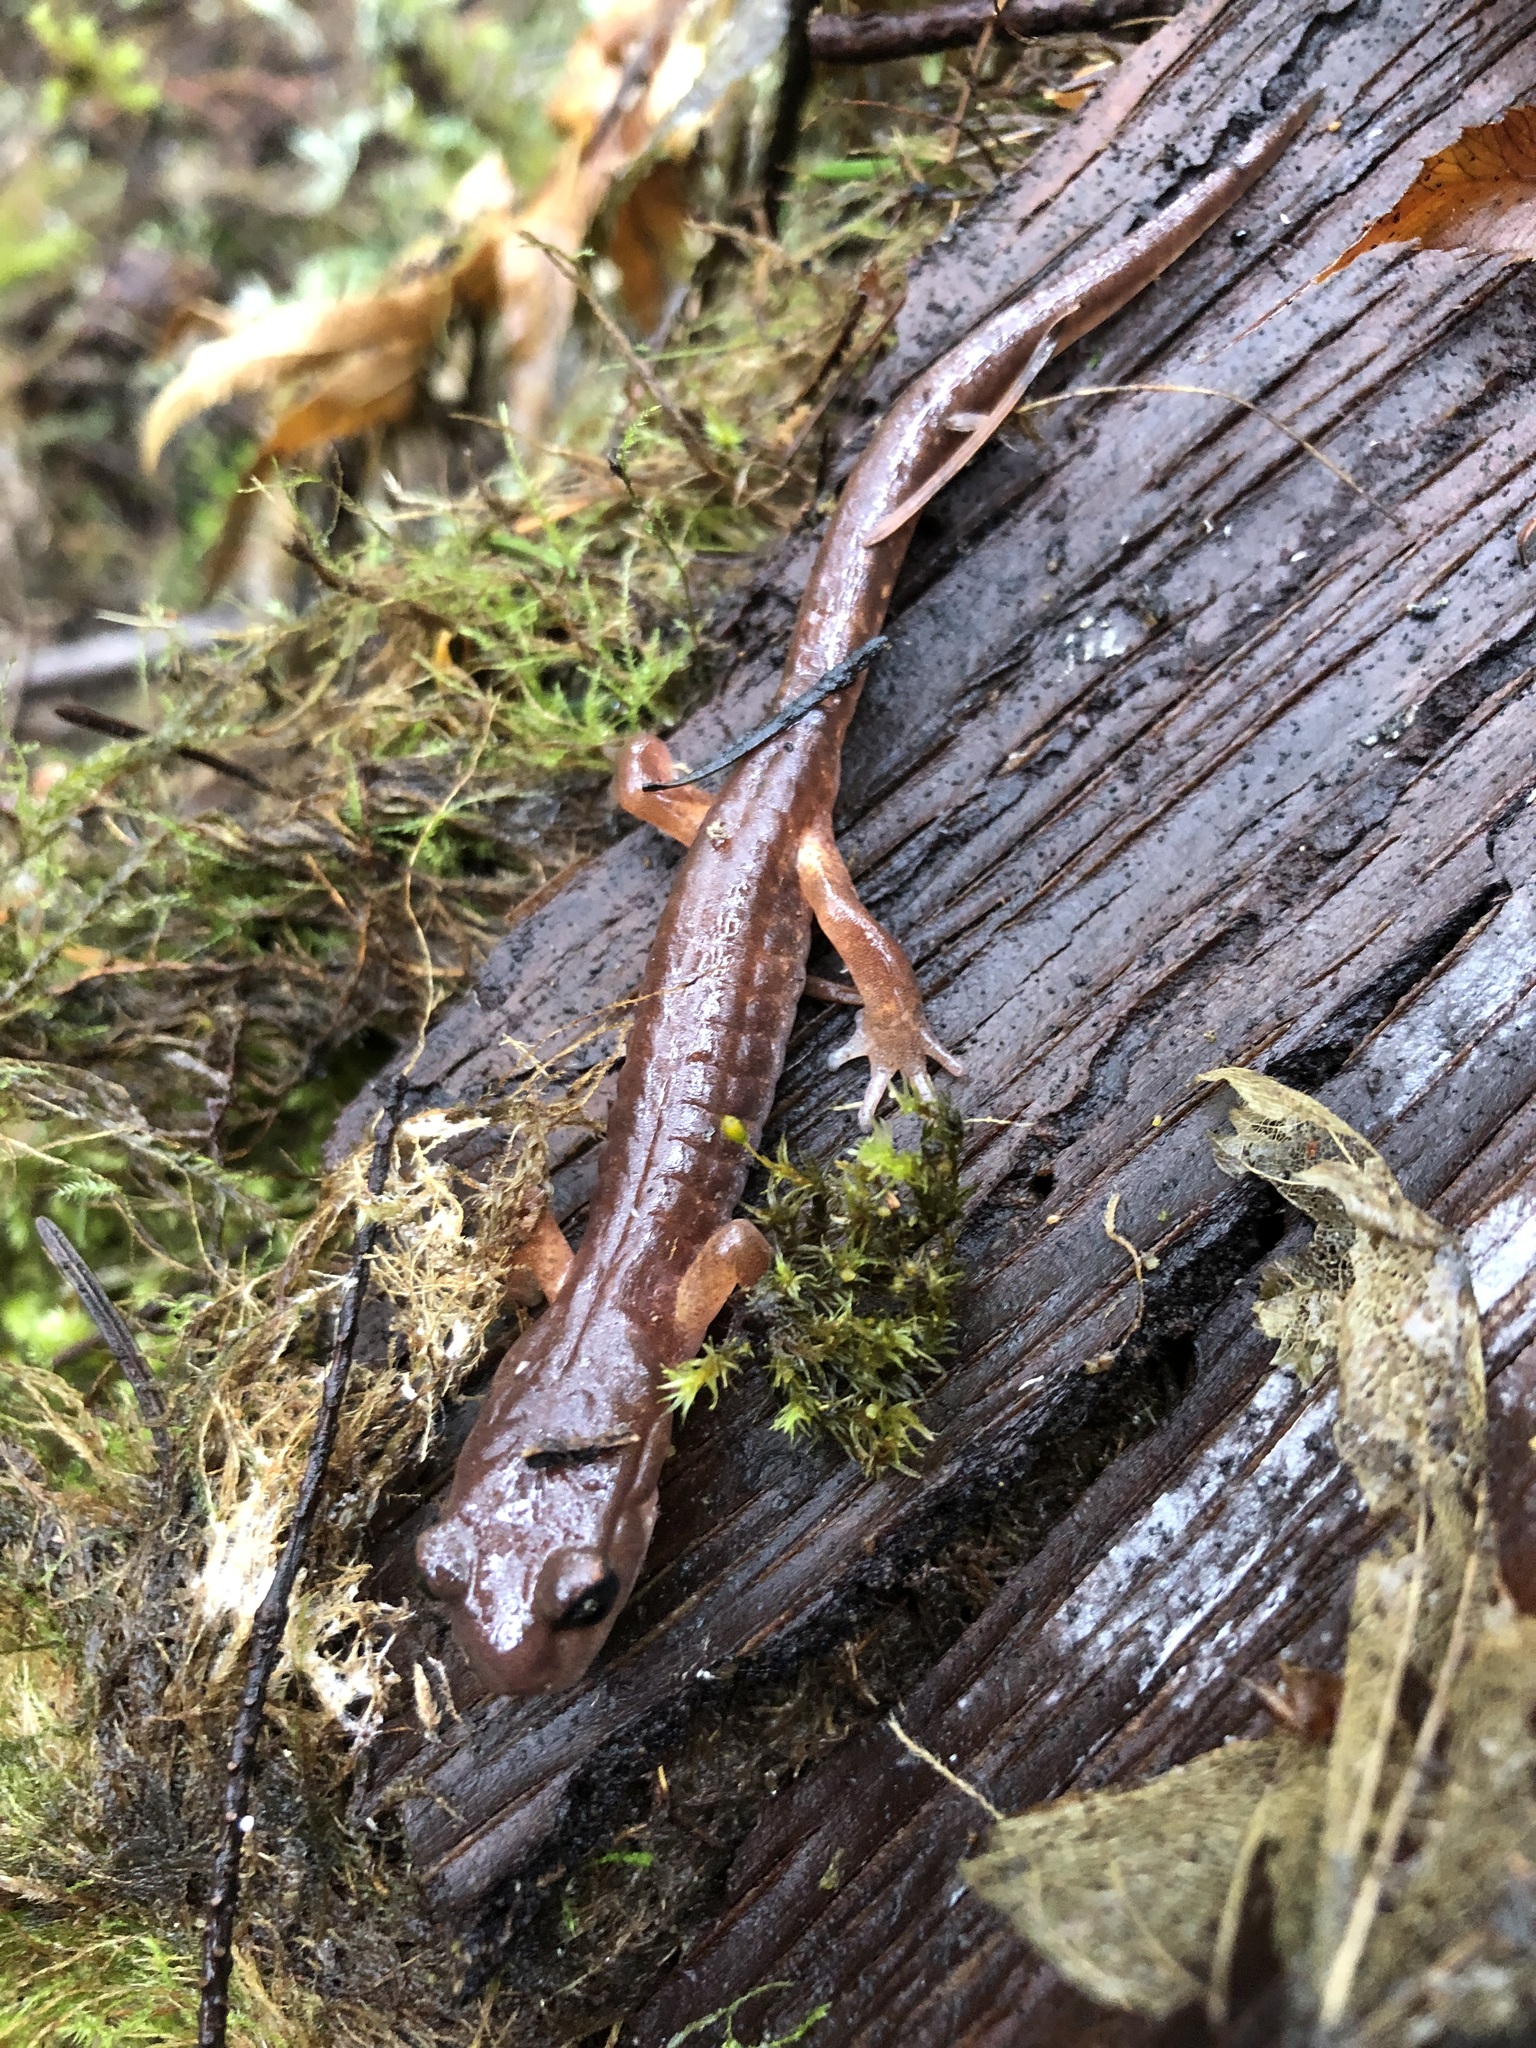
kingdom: Animalia
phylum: Chordata
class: Amphibia
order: Caudata
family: Plethodontidae
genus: Ensatina
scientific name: Ensatina eschscholtzii
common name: Ensatina
